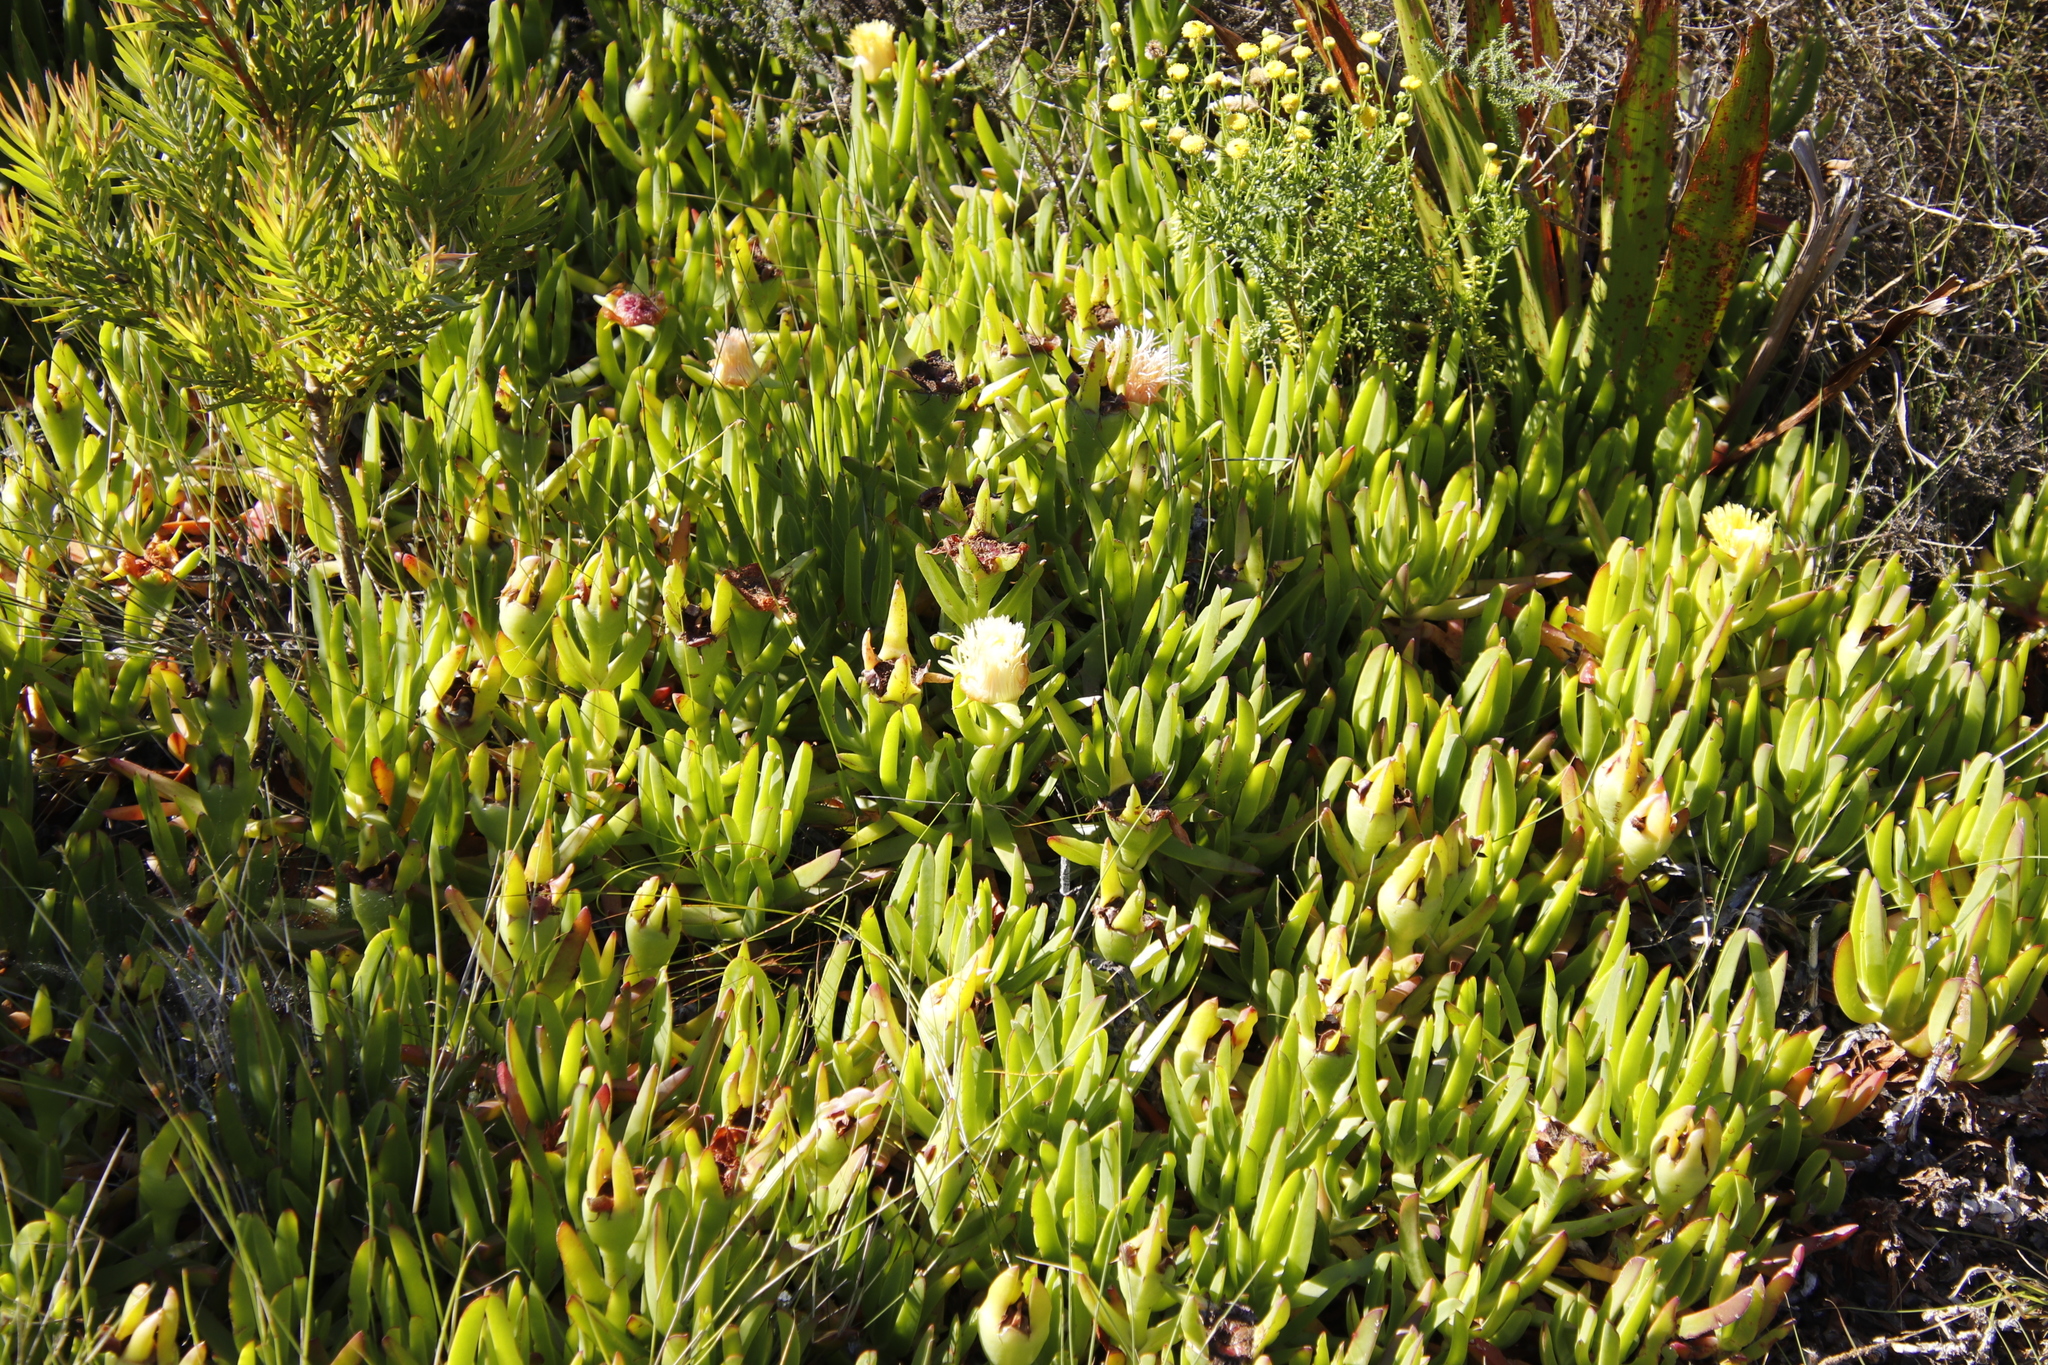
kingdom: Plantae
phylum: Tracheophyta
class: Magnoliopsida
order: Caryophyllales
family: Aizoaceae
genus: Carpobrotus
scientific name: Carpobrotus edulis
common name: Hottentot-fig
